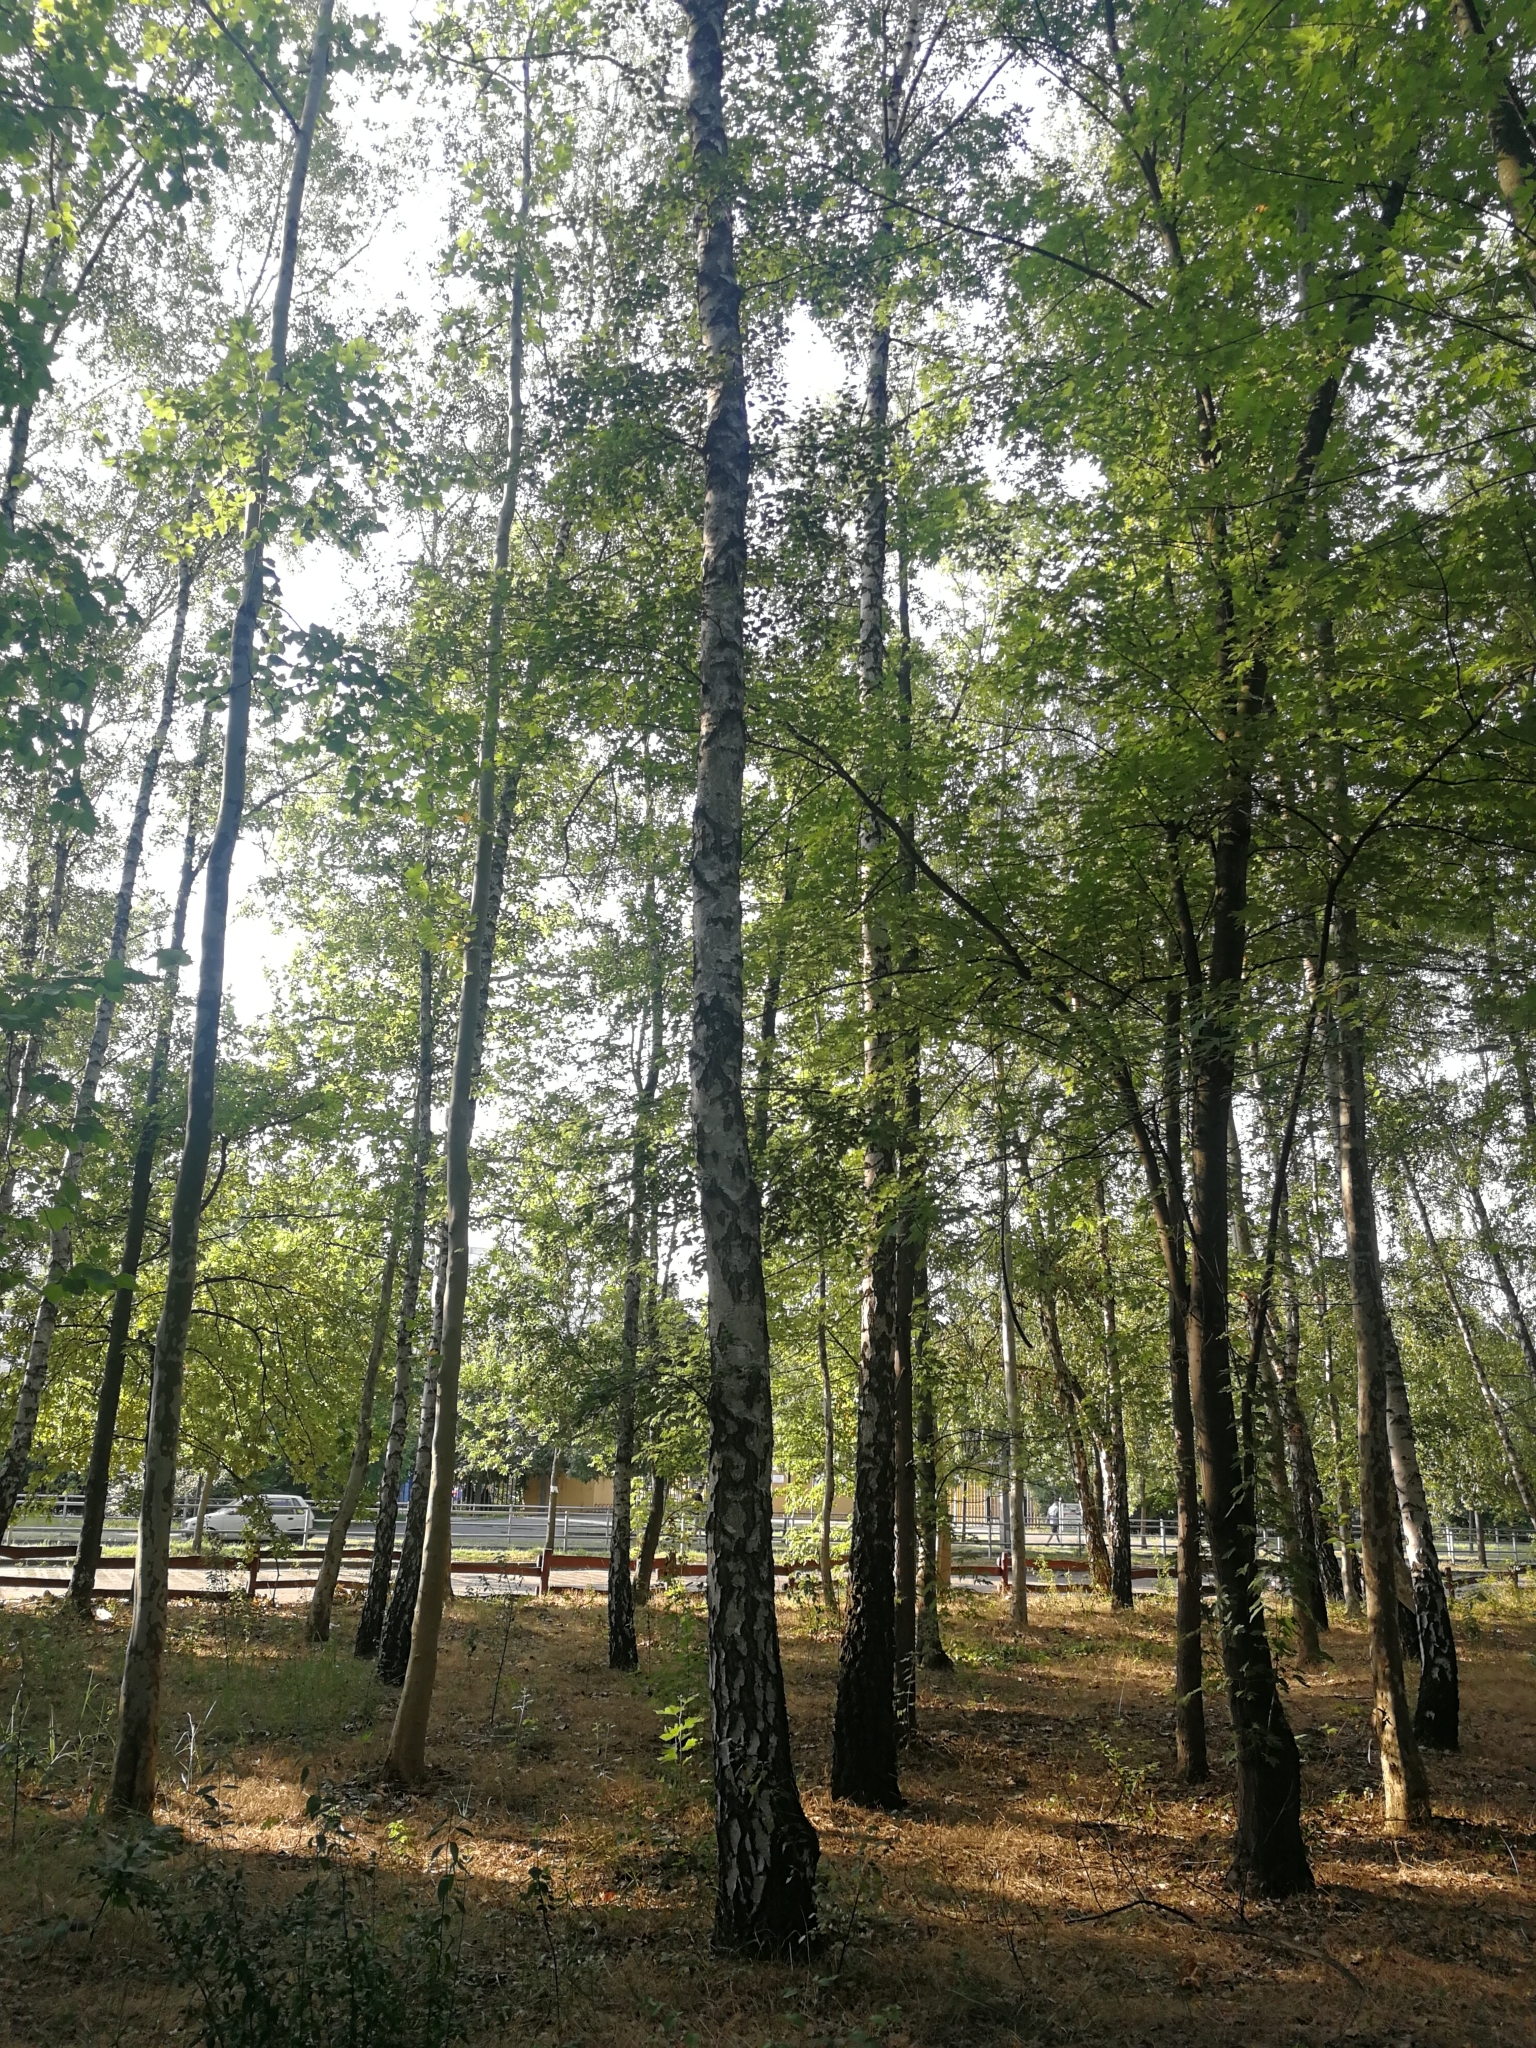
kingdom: Plantae
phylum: Tracheophyta
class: Magnoliopsida
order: Fagales
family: Betulaceae
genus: Betula
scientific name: Betula pendula
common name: Silver birch
